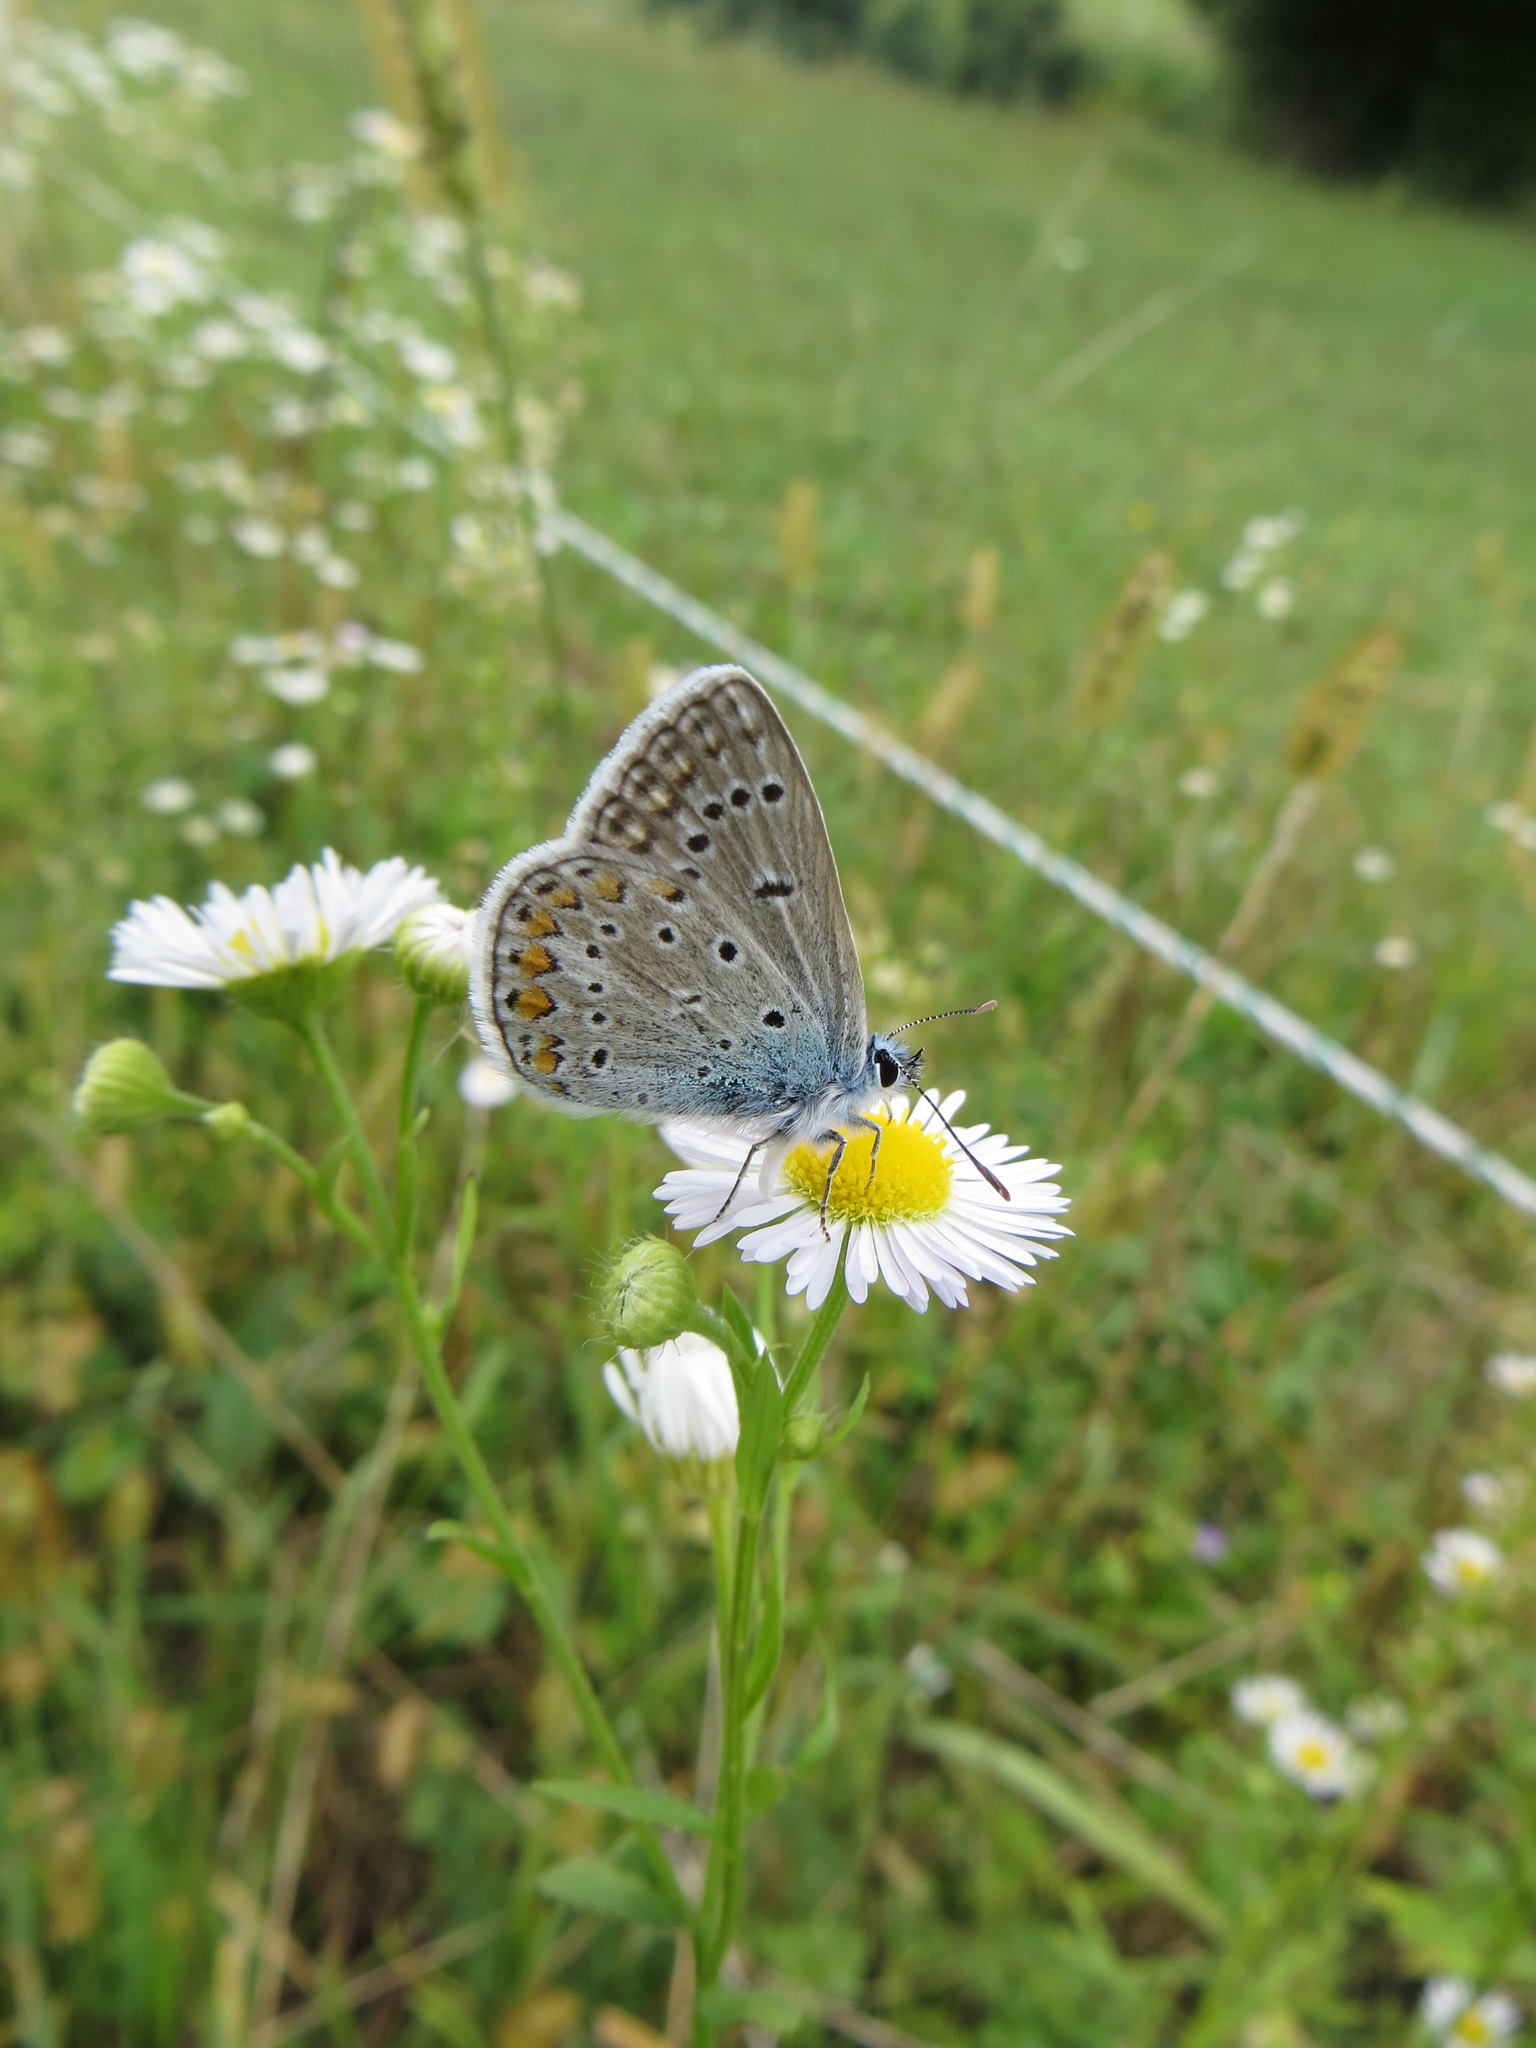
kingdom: Animalia
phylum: Arthropoda
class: Insecta
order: Lepidoptera
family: Lycaenidae
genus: Polyommatus
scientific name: Polyommatus icarus
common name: Common blue
